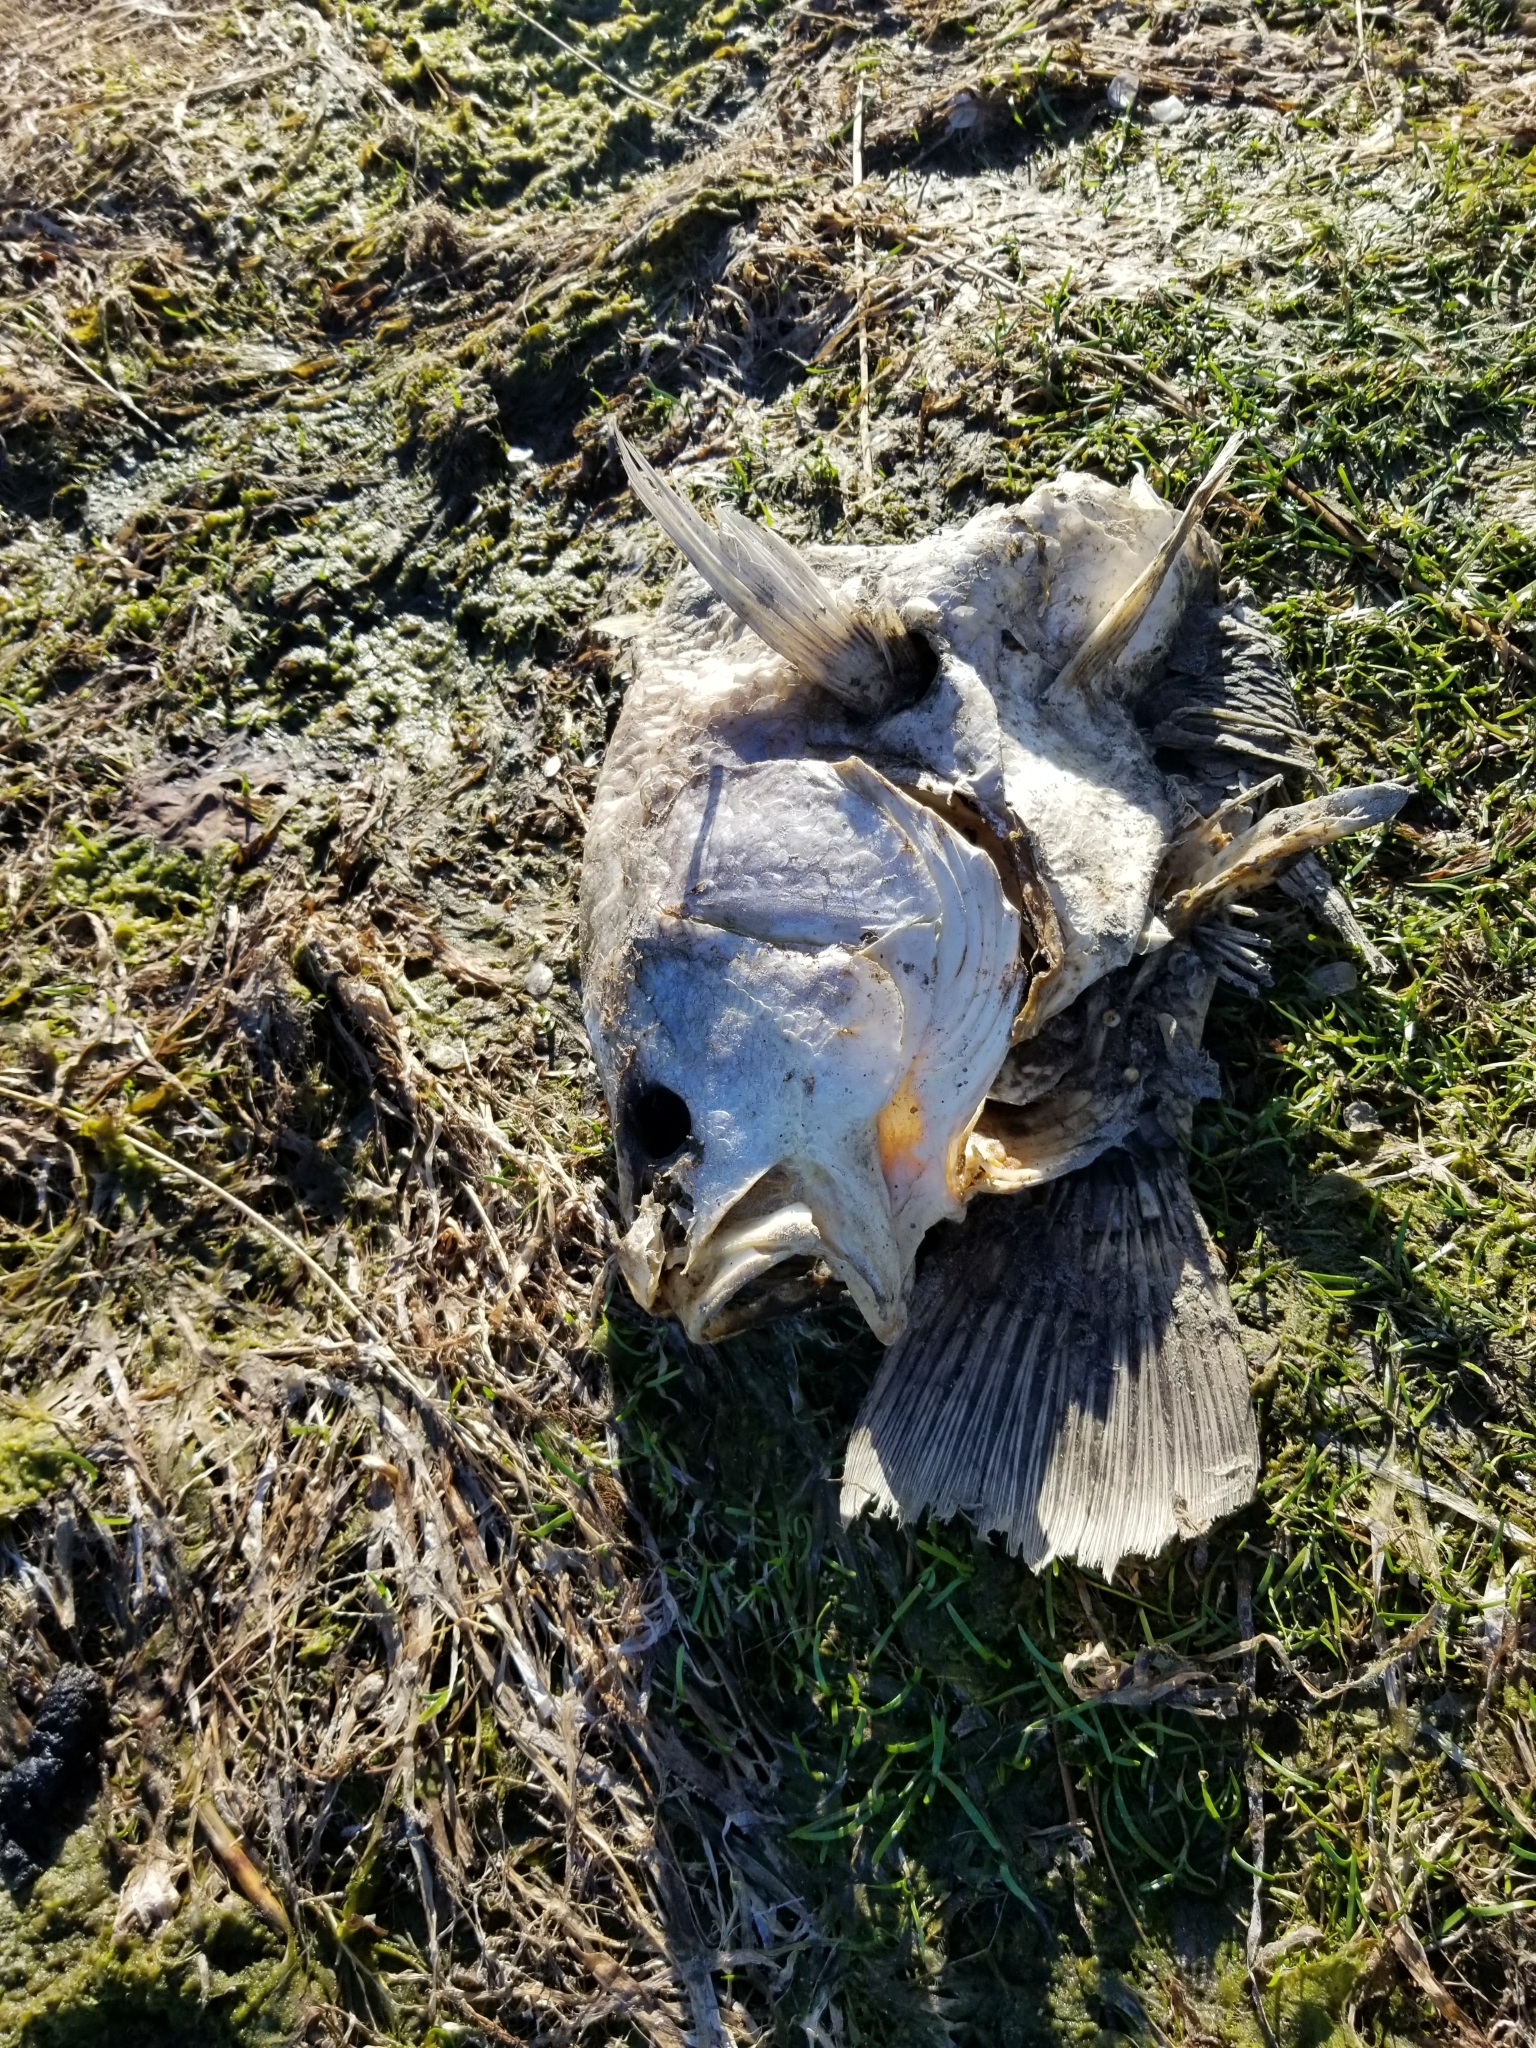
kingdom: Animalia
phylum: Chordata
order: Perciformes
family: Sciaenidae
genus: Aplodinotus
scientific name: Aplodinotus grunniens
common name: Freshwater drum
